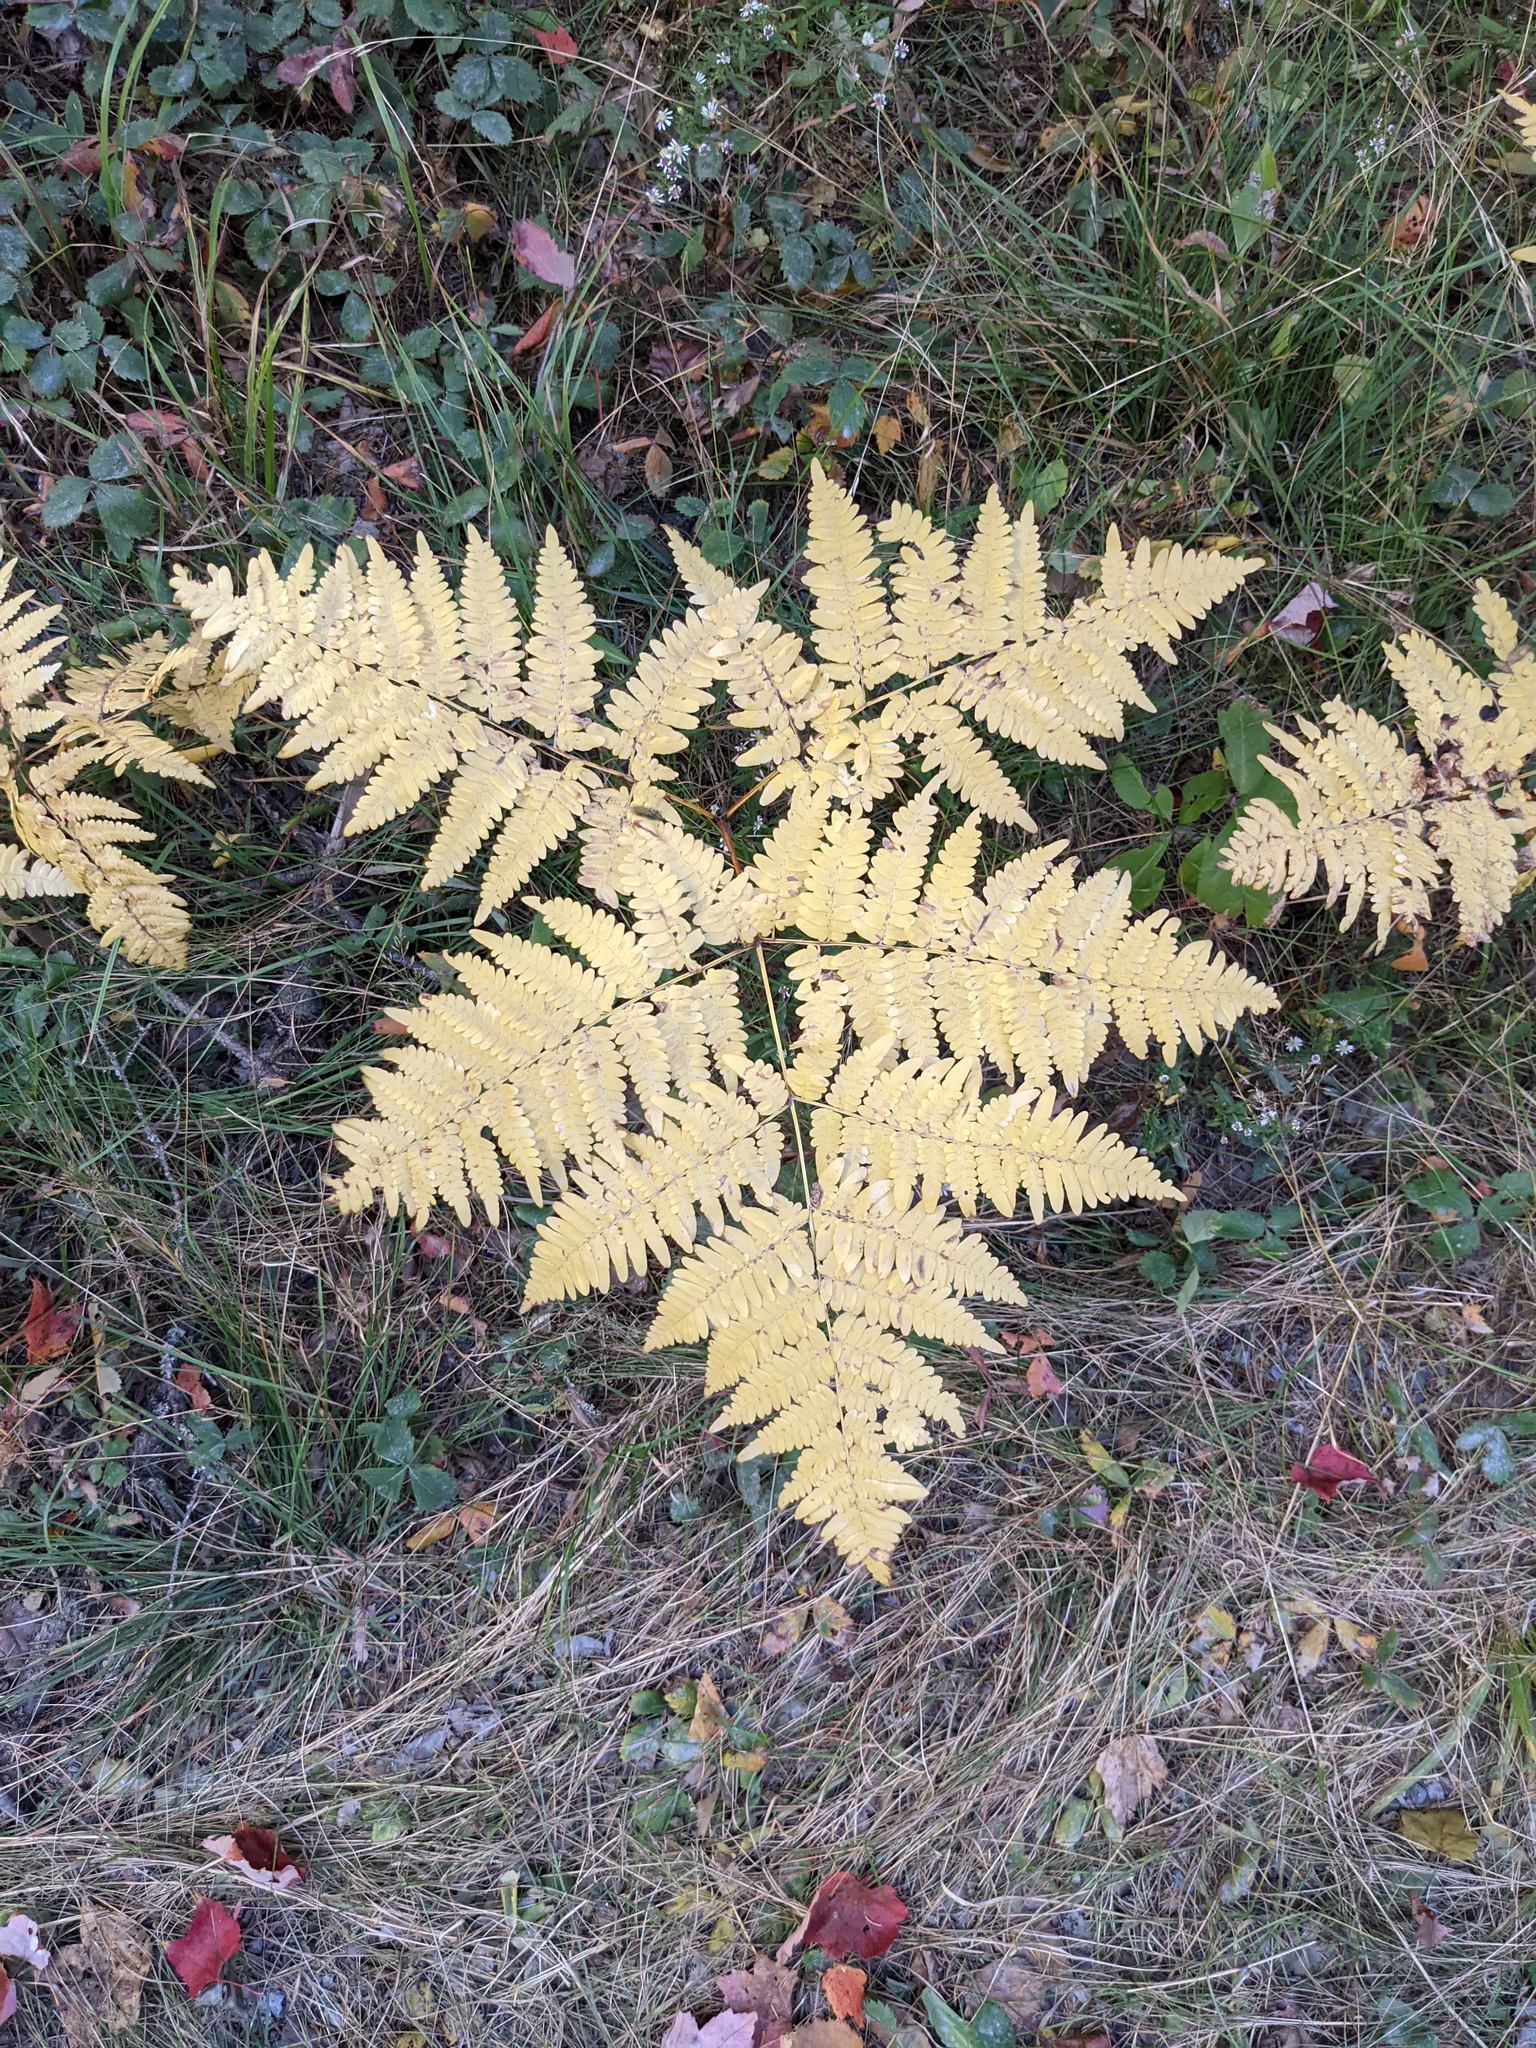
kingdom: Plantae
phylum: Tracheophyta
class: Polypodiopsida
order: Polypodiales
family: Dennstaedtiaceae
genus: Pteridium
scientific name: Pteridium aquilinum
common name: Bracken
